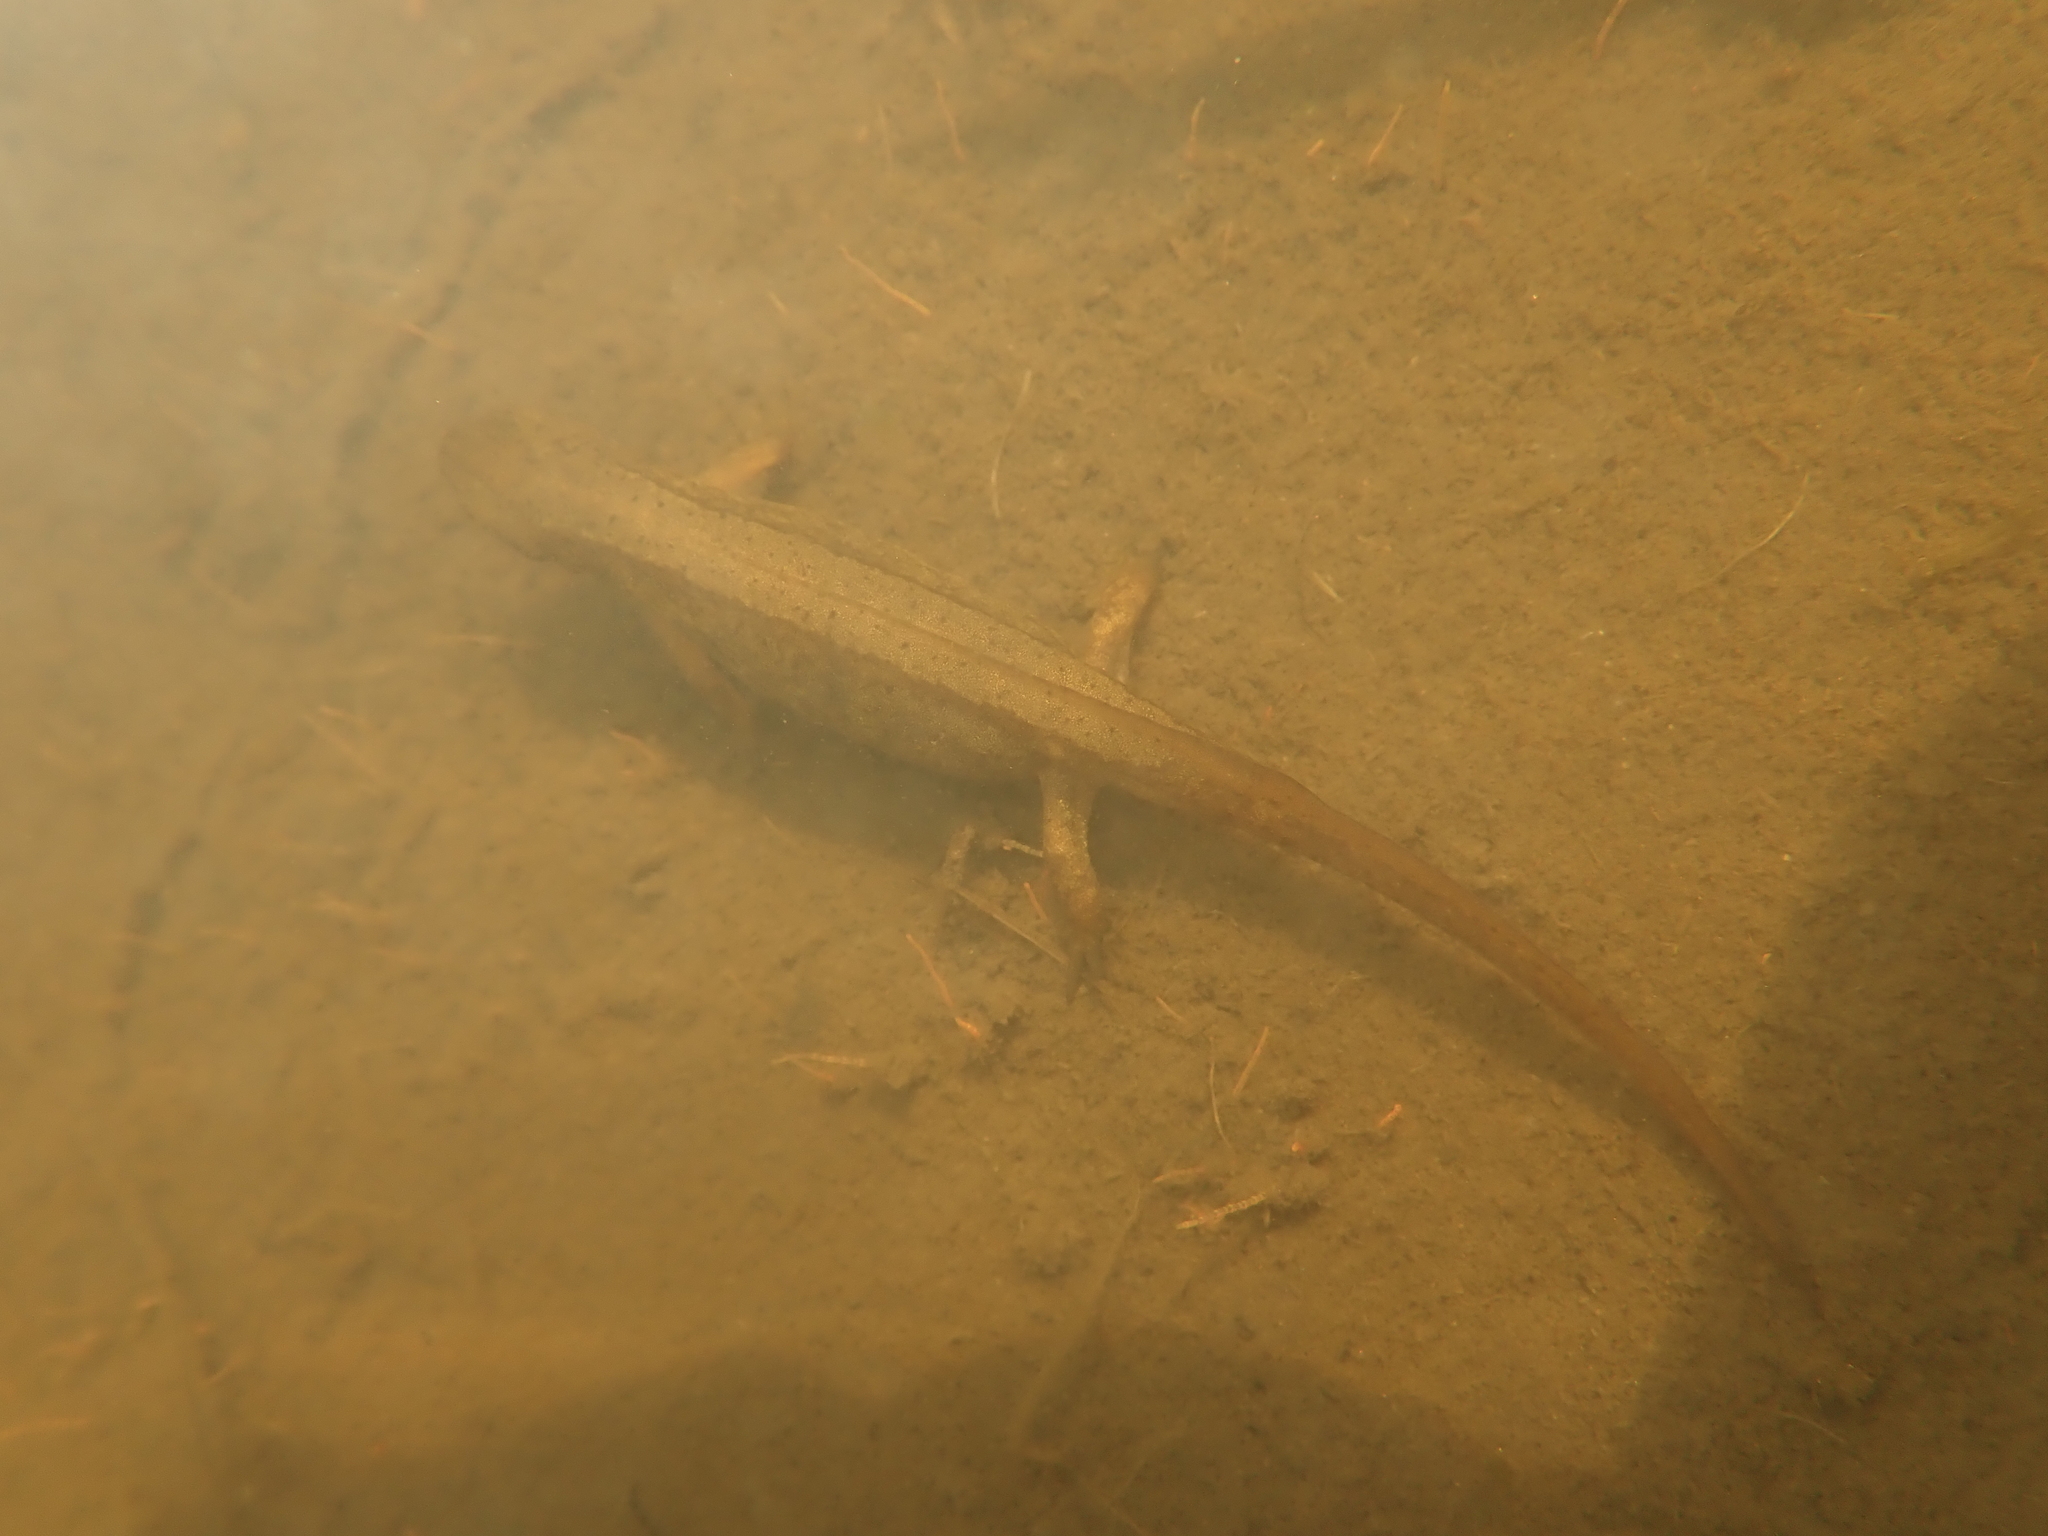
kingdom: Animalia
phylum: Chordata
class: Amphibia
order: Caudata
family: Salamandridae
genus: Lissotriton
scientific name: Lissotriton vulgaris
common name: Smooth newt
